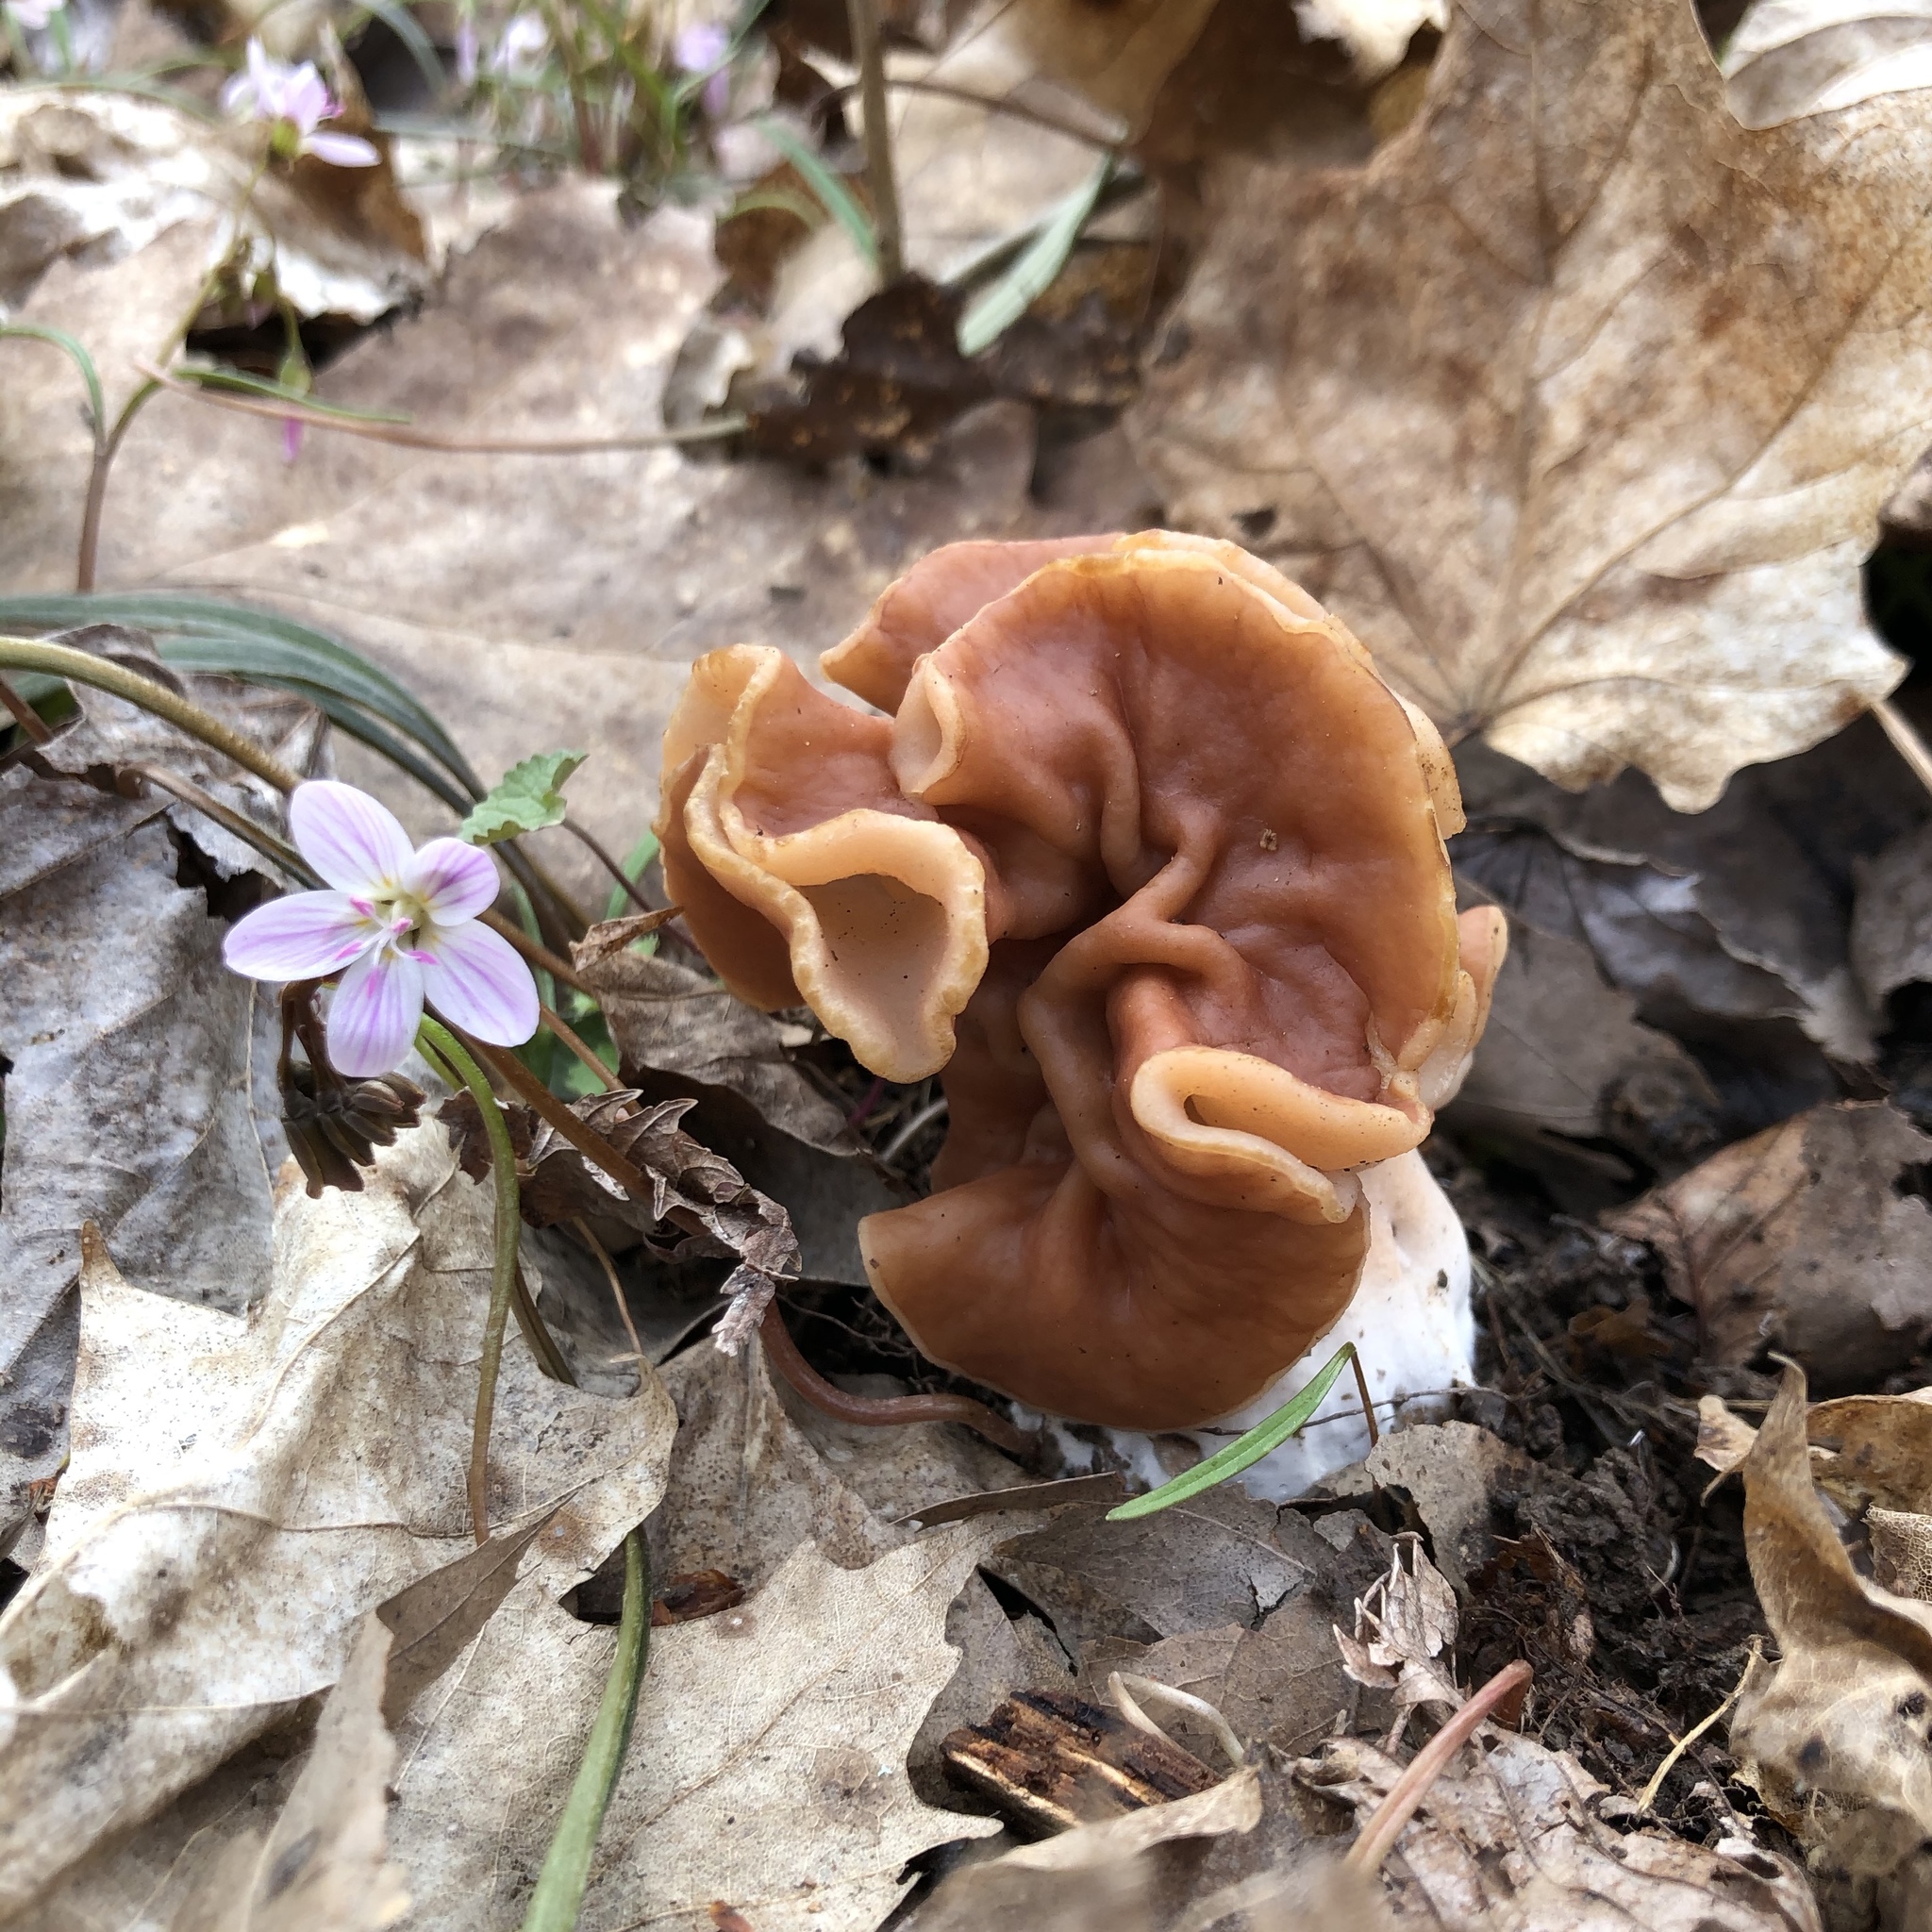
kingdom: Fungi
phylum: Ascomycota
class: Pezizomycetes
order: Pezizales
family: Discinaceae
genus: Discina
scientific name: Discina brunnea
